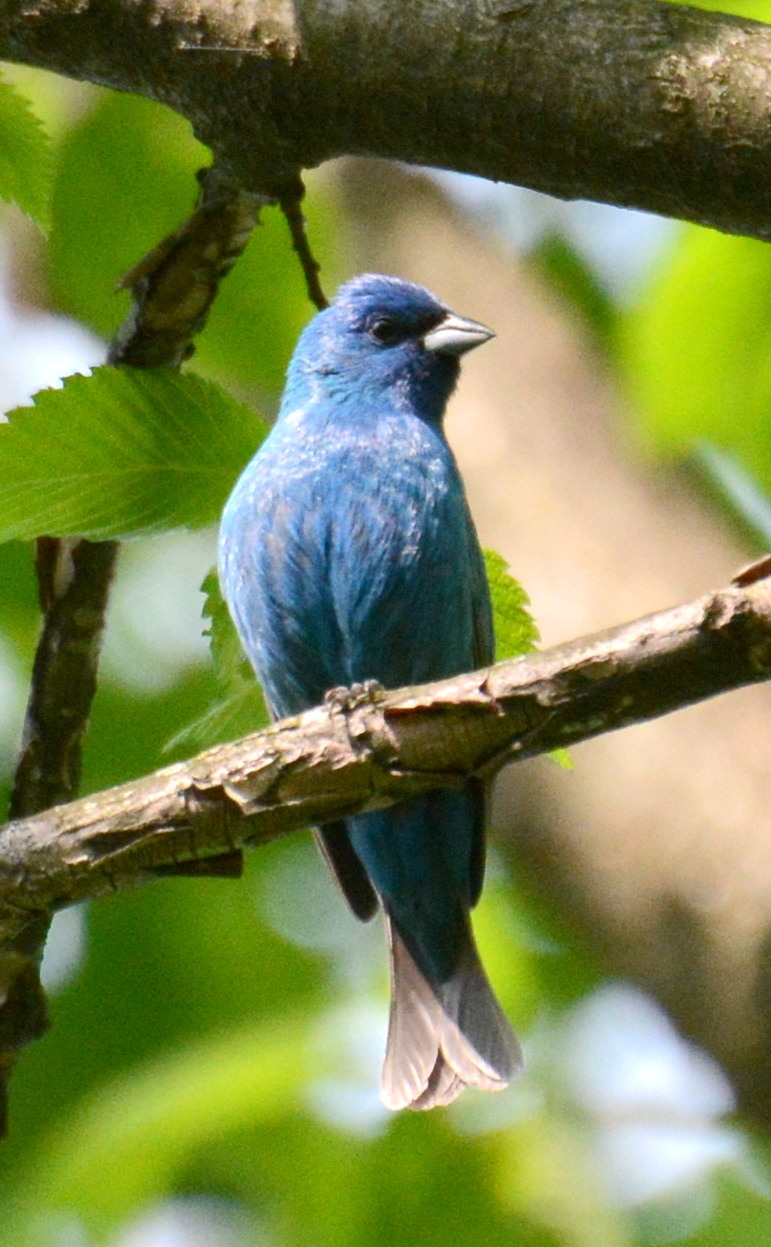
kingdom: Animalia
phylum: Chordata
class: Aves
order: Passeriformes
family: Cardinalidae
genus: Passerina
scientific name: Passerina cyanea
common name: Indigo bunting
